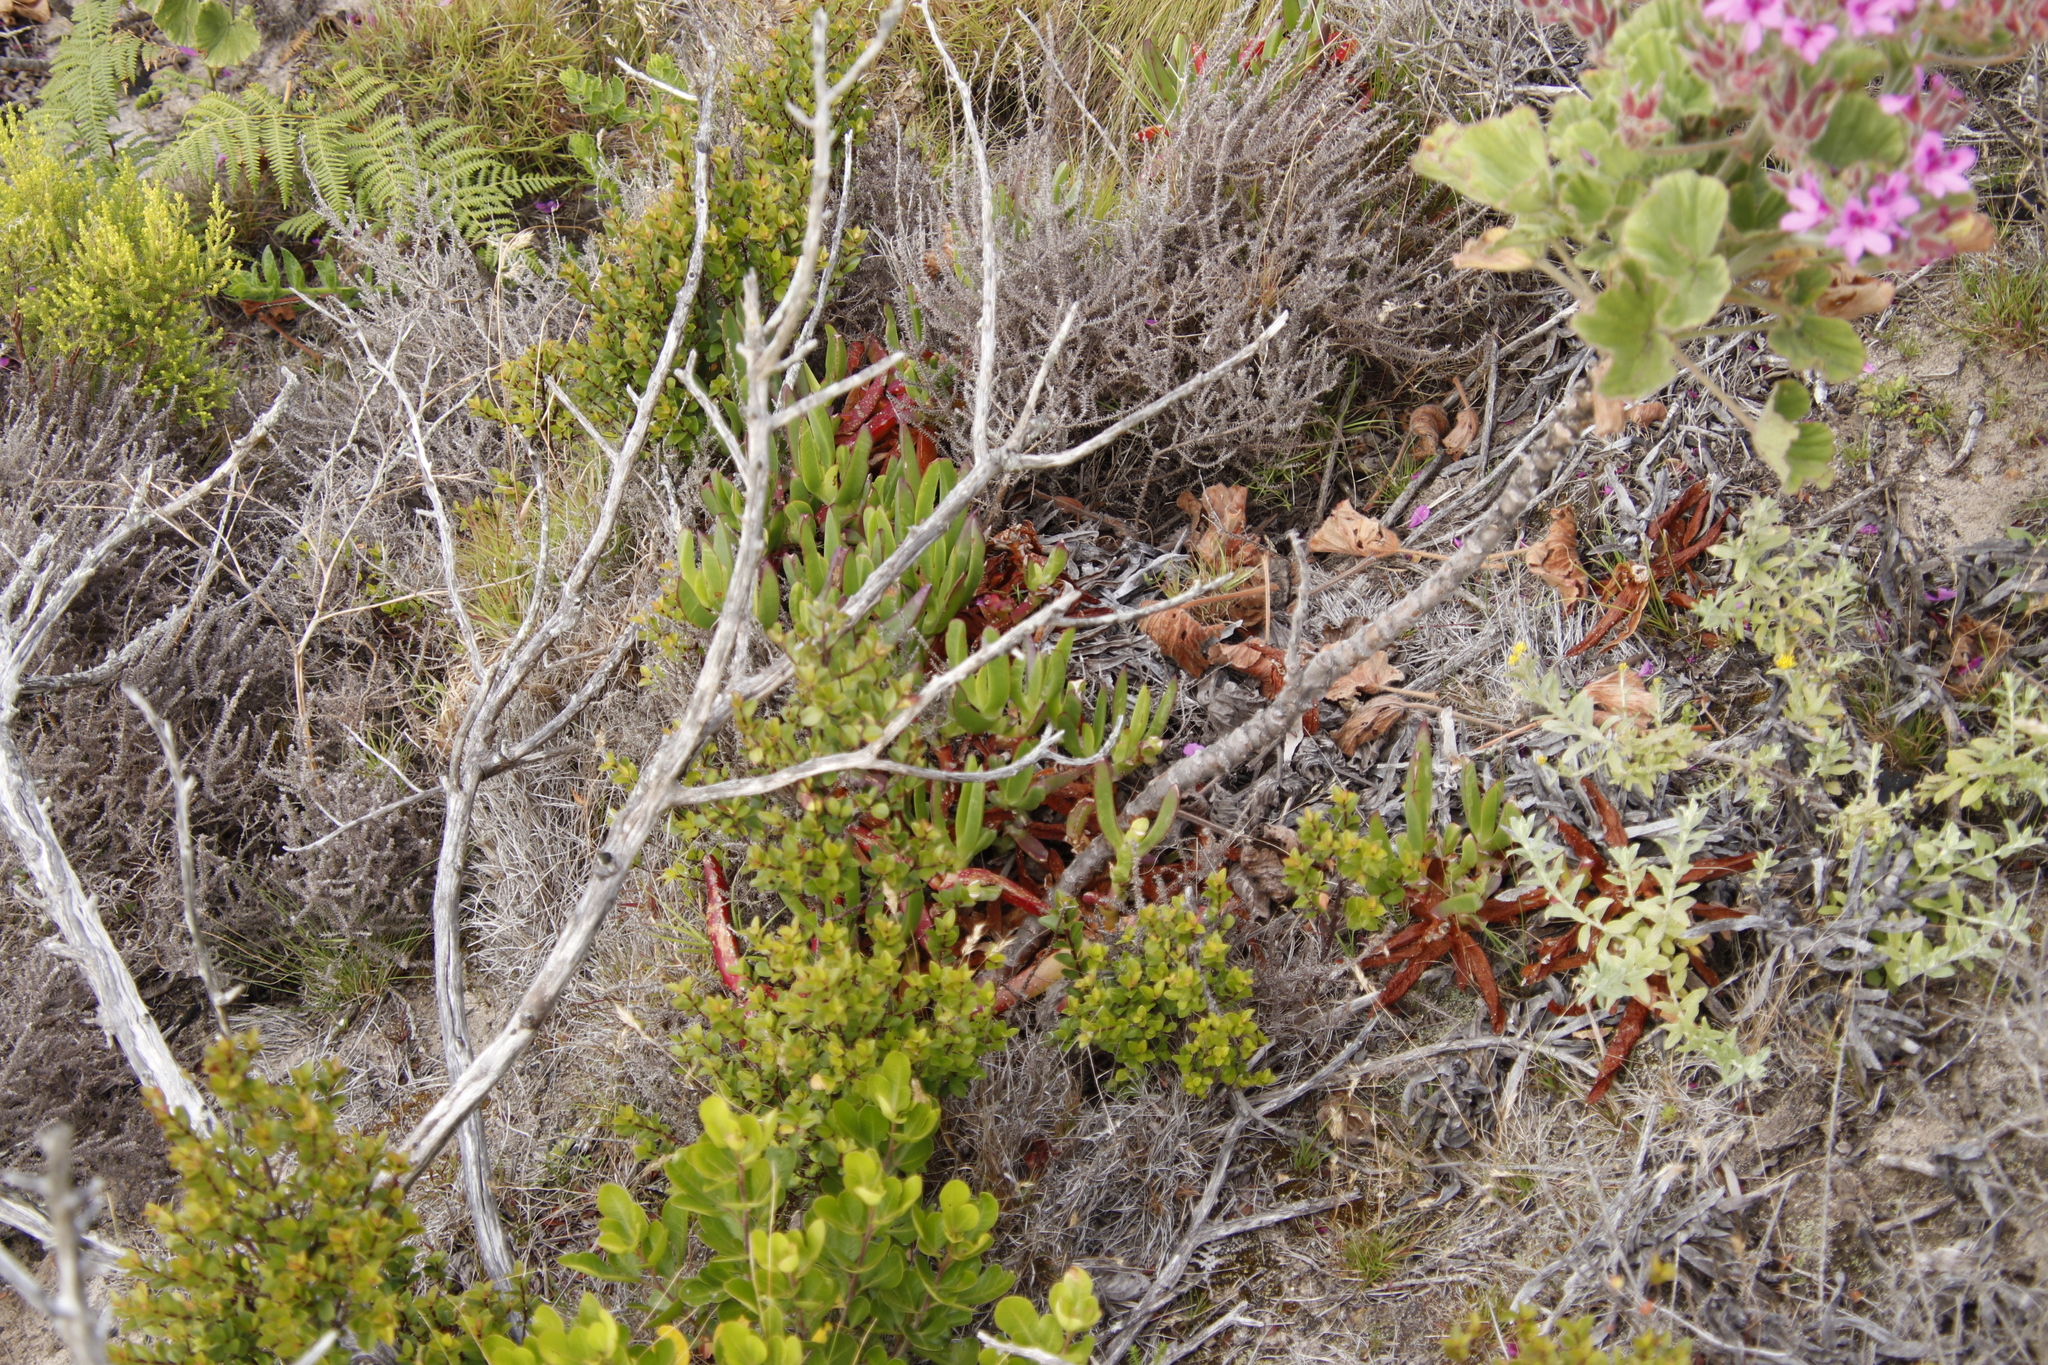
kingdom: Plantae
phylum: Tracheophyta
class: Magnoliopsida
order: Caryophyllales
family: Aizoaceae
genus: Carpobrotus
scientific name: Carpobrotus edulis
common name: Hottentot-fig
